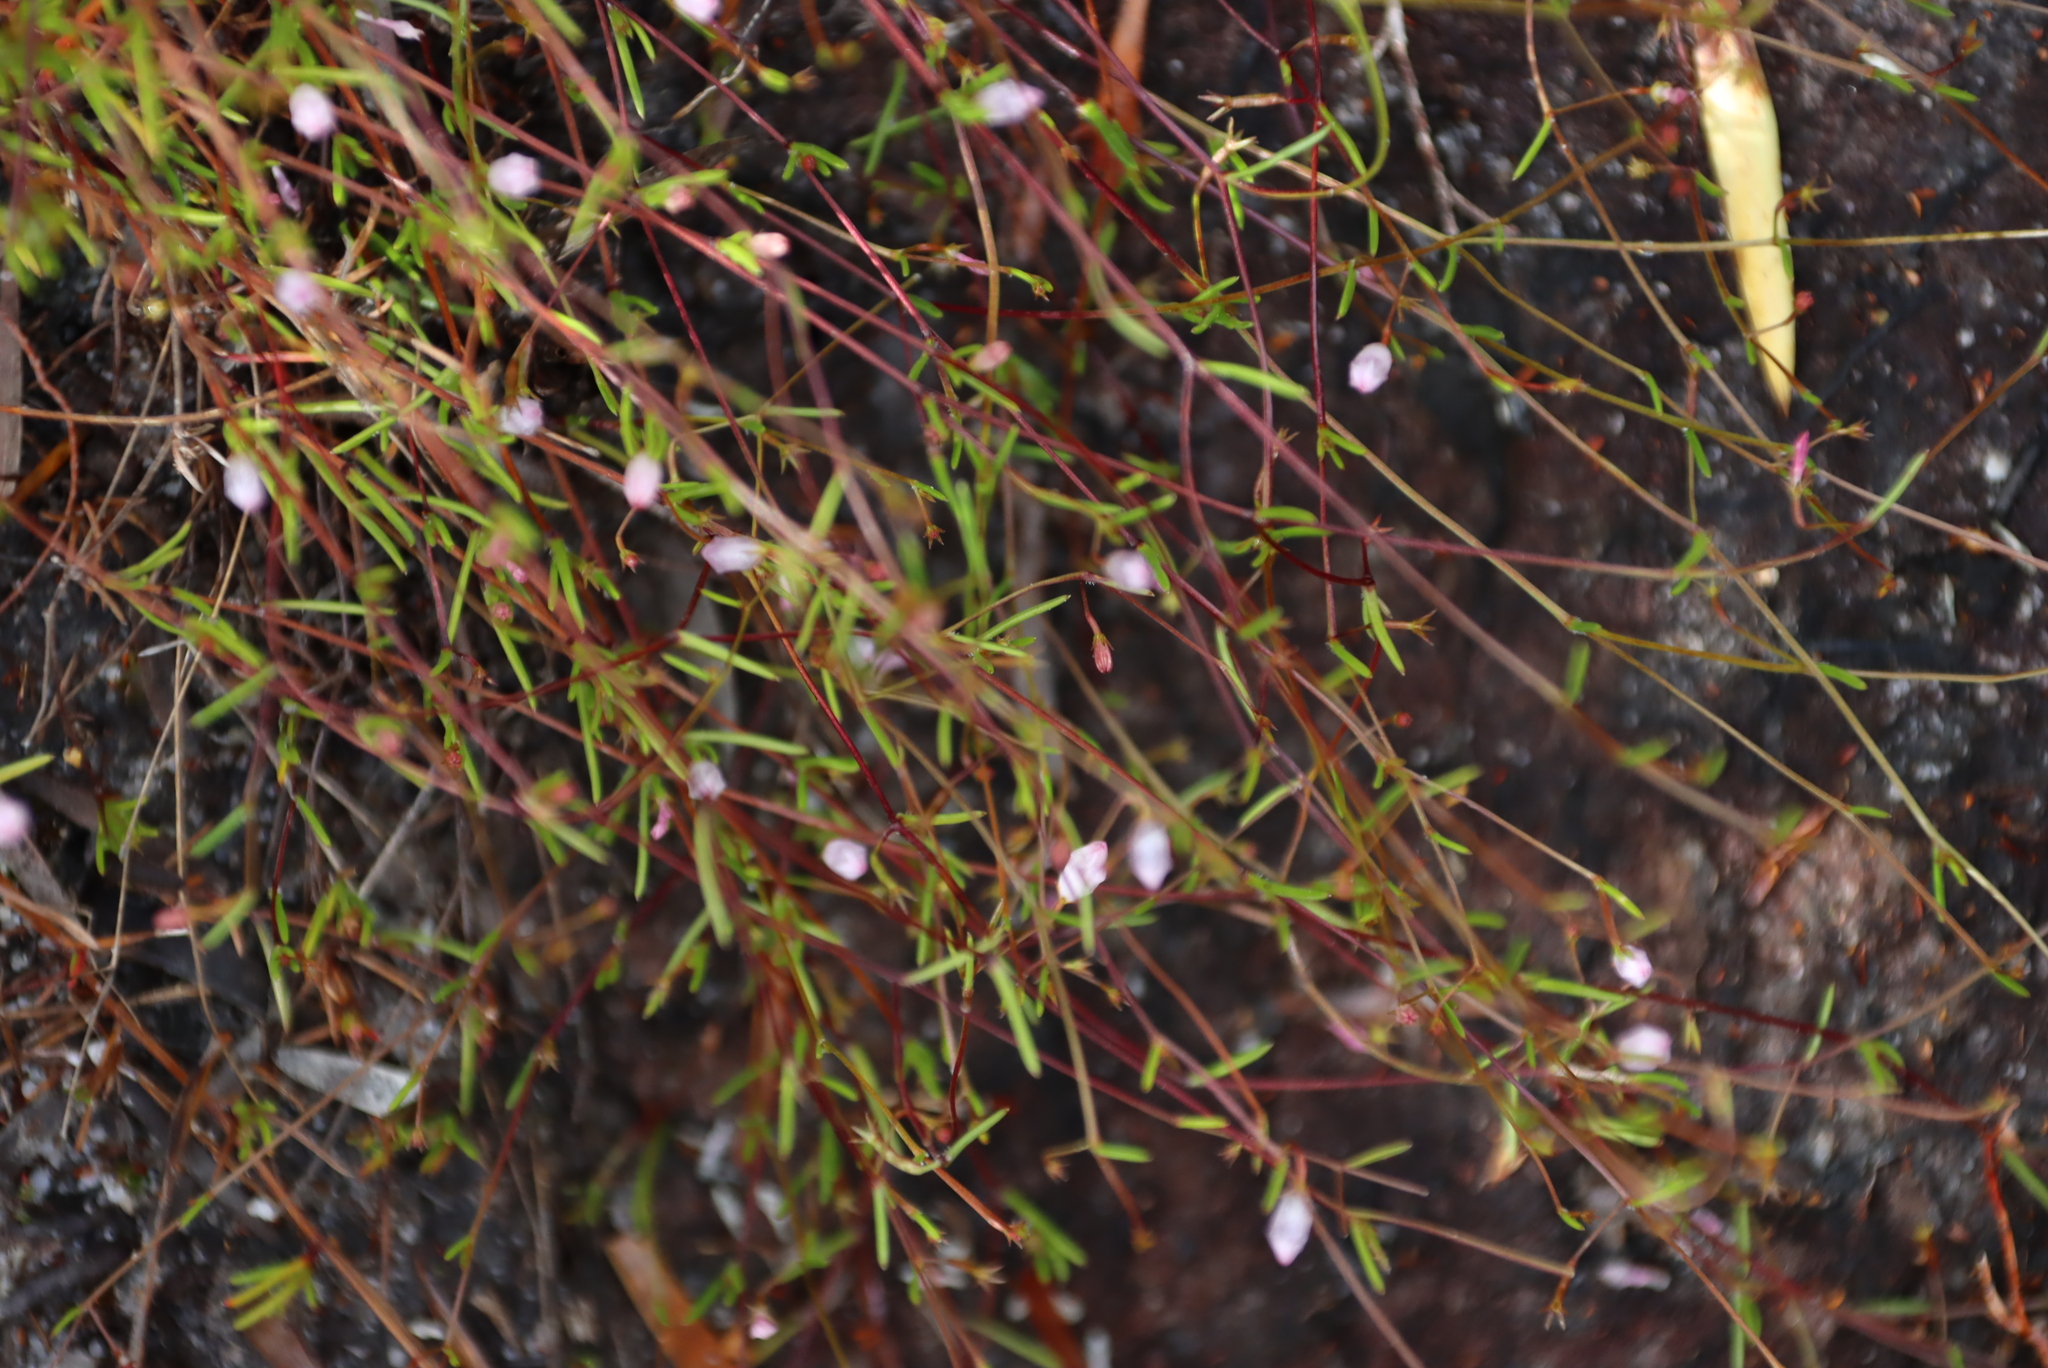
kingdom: Plantae
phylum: Tracheophyta
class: Magnoliopsida
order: Asterales
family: Campanulaceae
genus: Prismatocarpus
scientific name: Prismatocarpus sessilis
